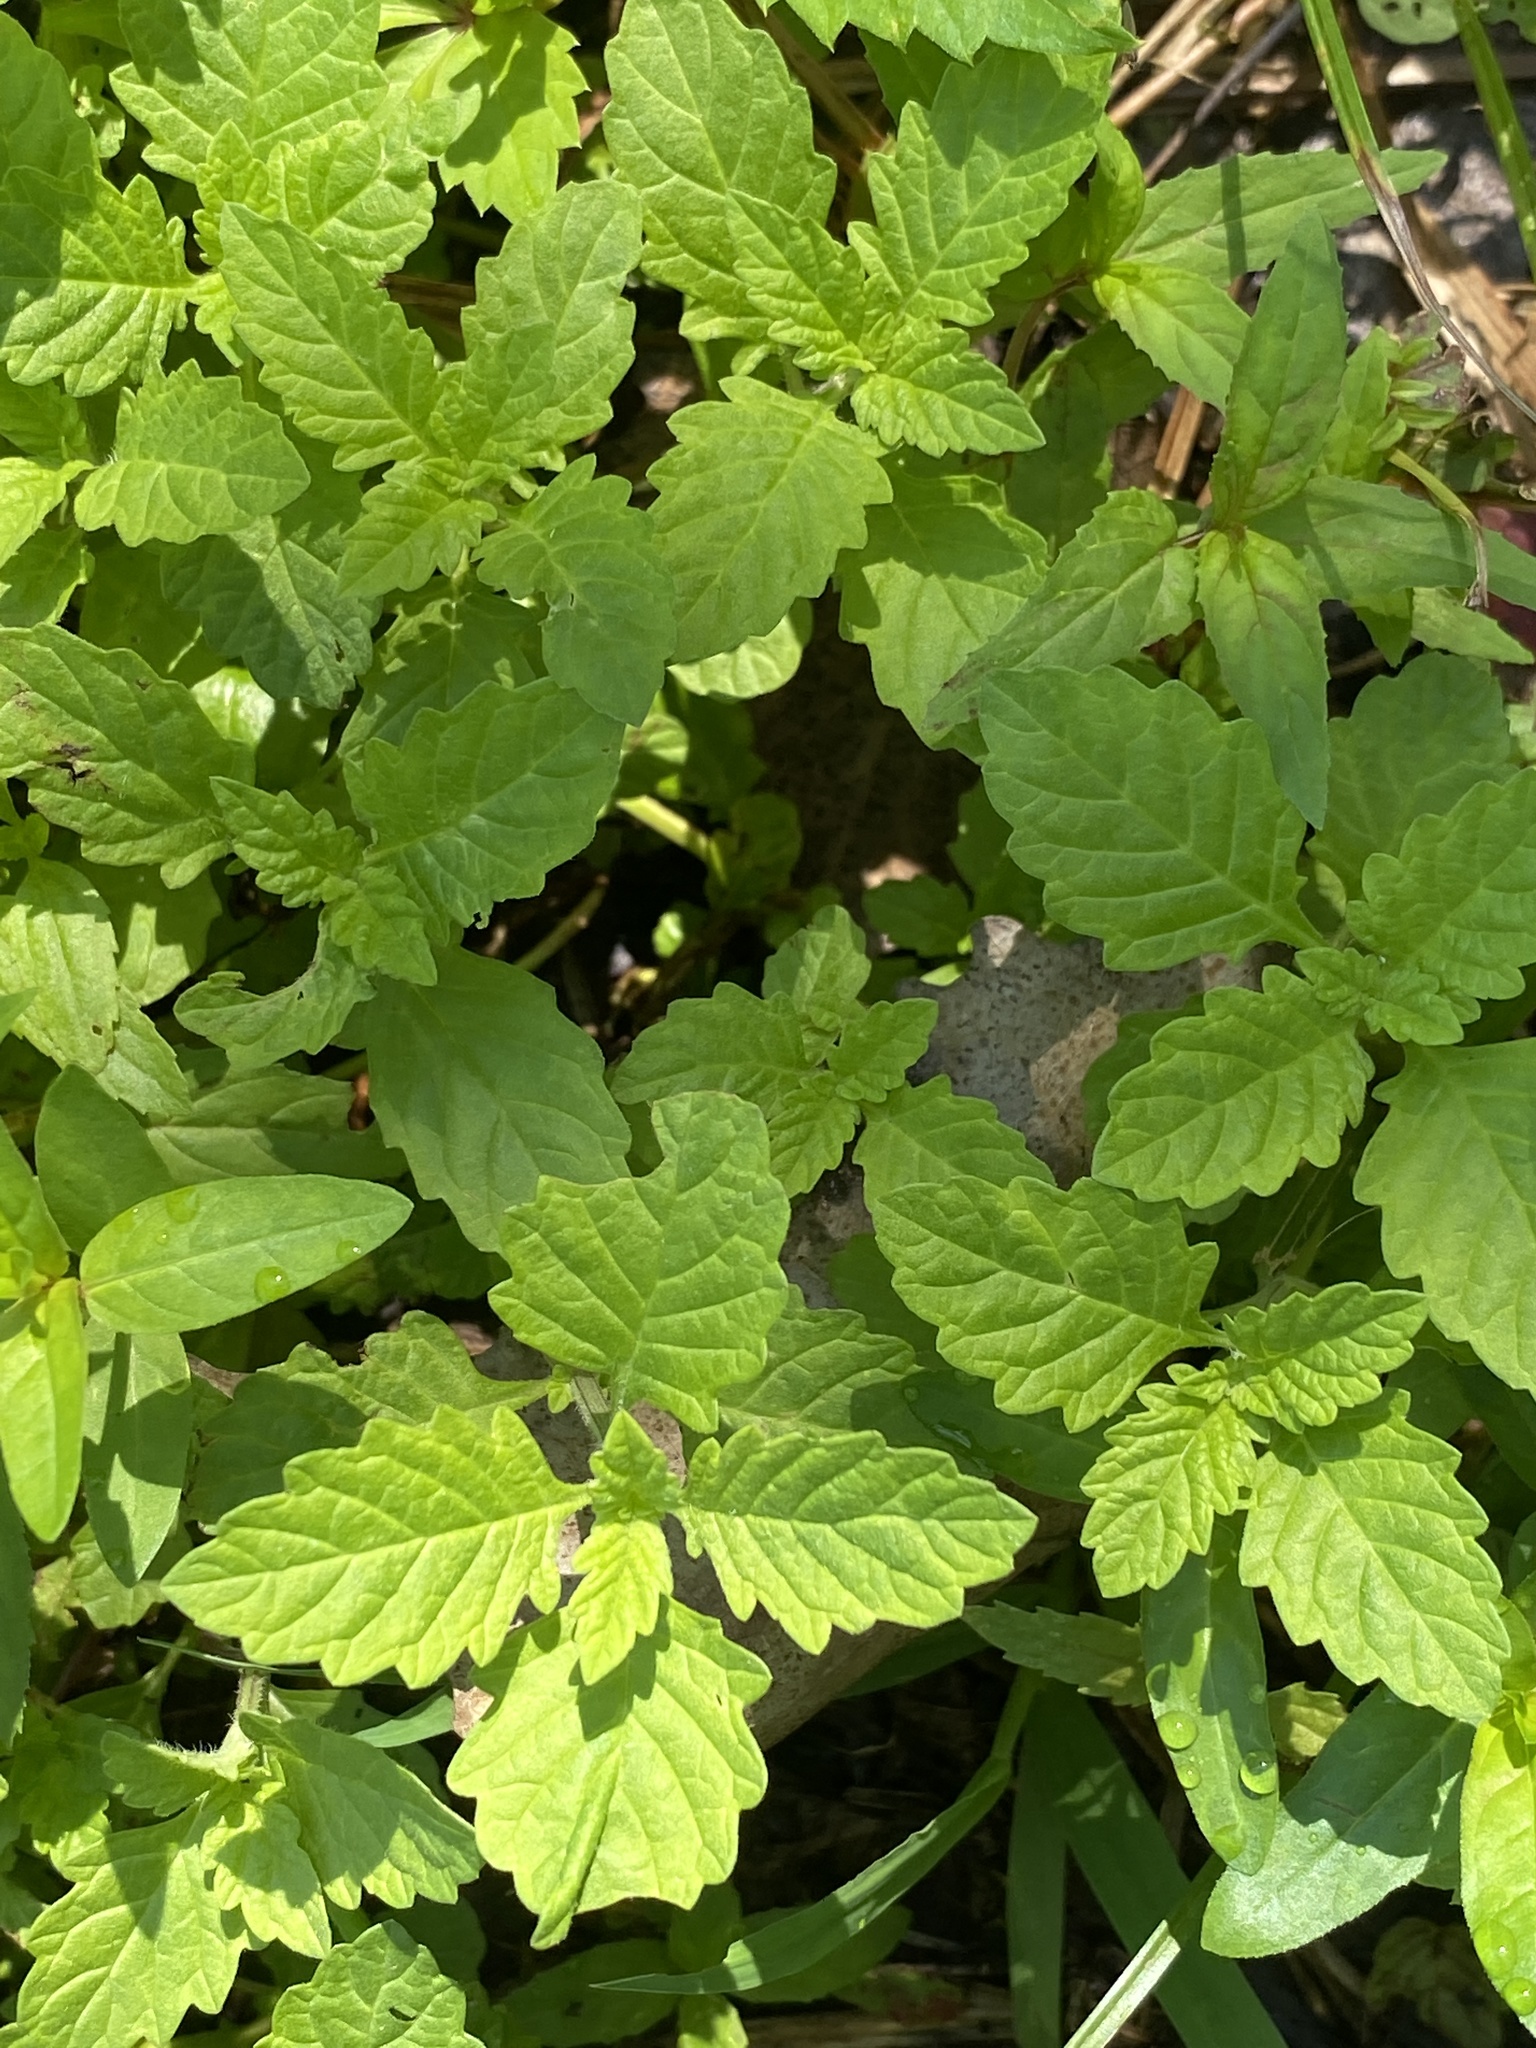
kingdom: Plantae
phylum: Tracheophyta
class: Magnoliopsida
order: Lamiales
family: Lamiaceae
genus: Lycopus
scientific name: Lycopus europaeus
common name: European bugleweed
